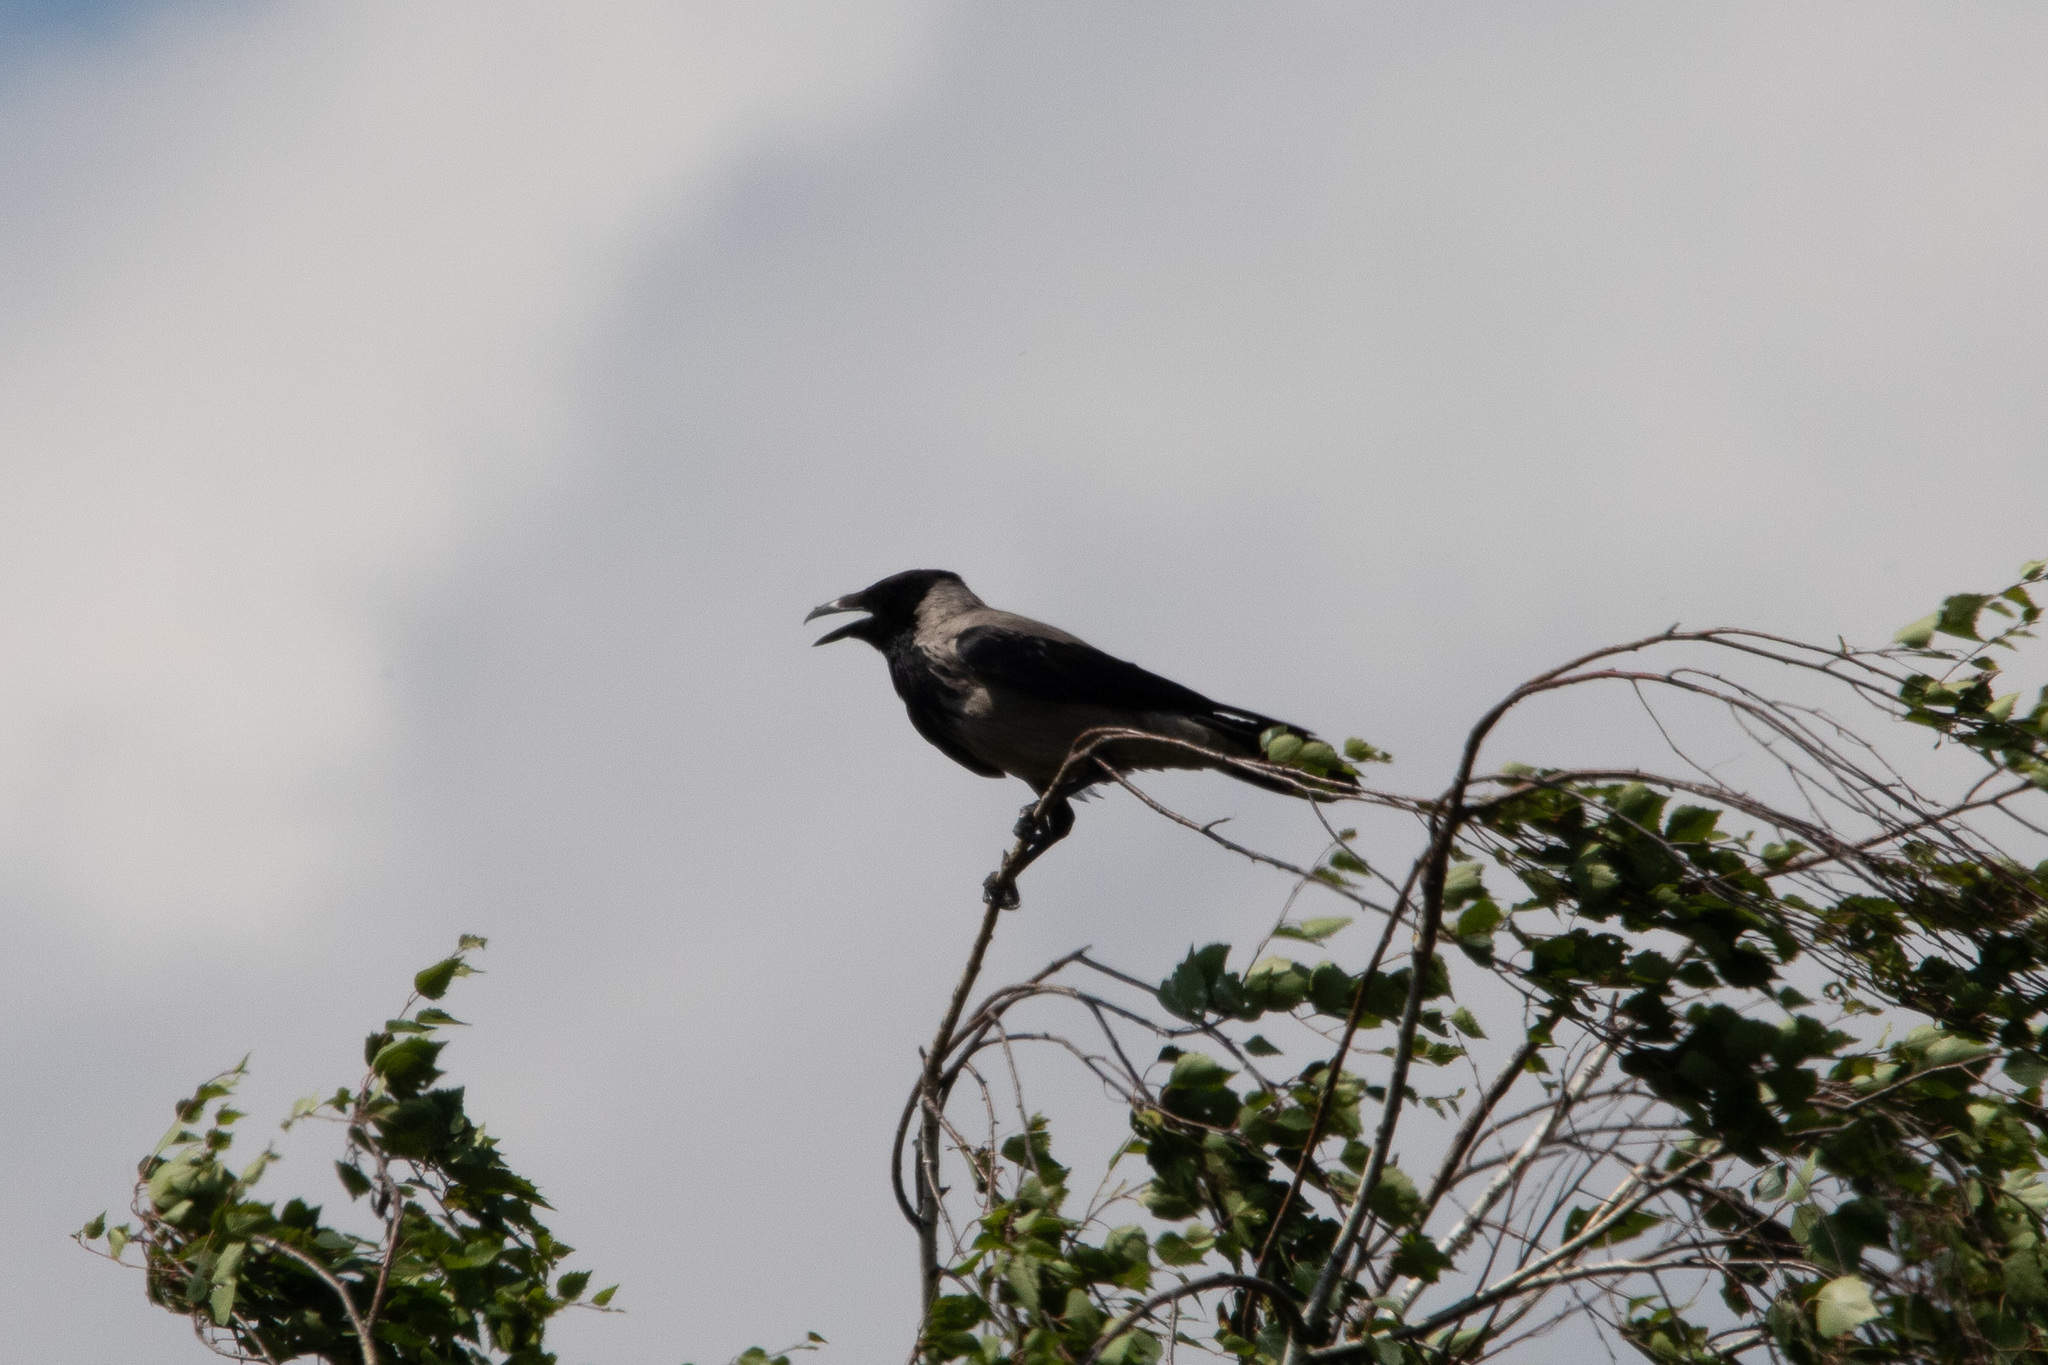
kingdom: Animalia
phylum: Chordata
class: Aves
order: Passeriformes
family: Corvidae
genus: Corvus
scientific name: Corvus cornix
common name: Hooded crow
